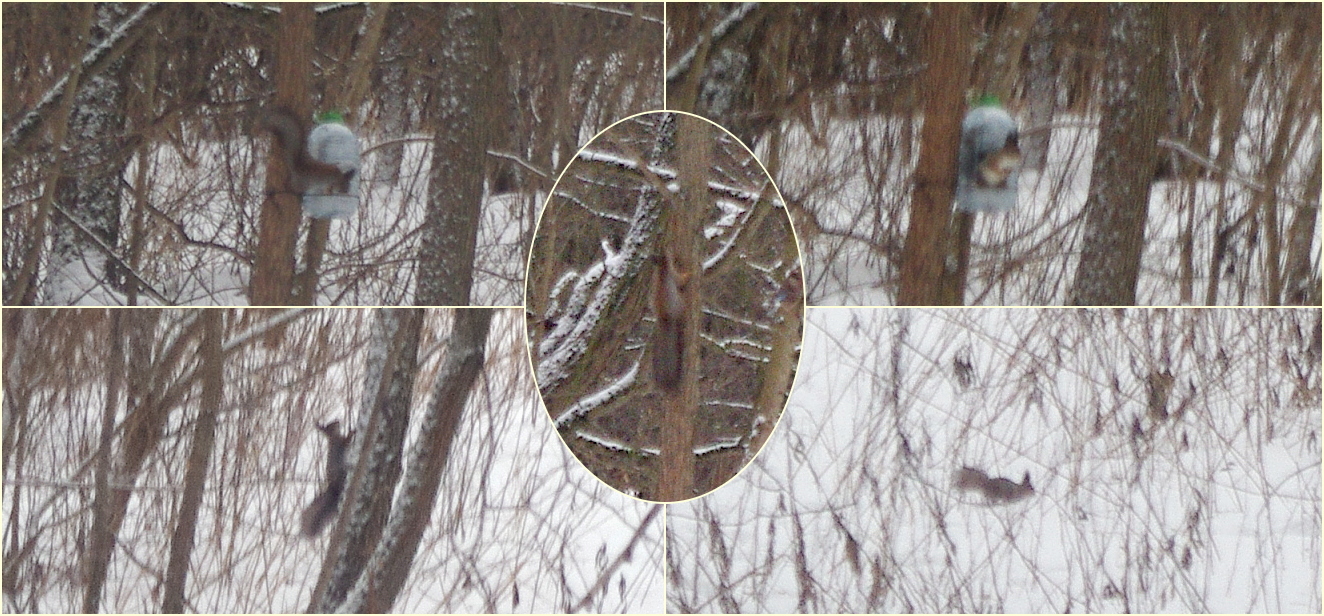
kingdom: Animalia
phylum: Chordata
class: Mammalia
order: Rodentia
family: Sciuridae
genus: Sciurus
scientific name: Sciurus vulgaris
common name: Eurasian red squirrel
